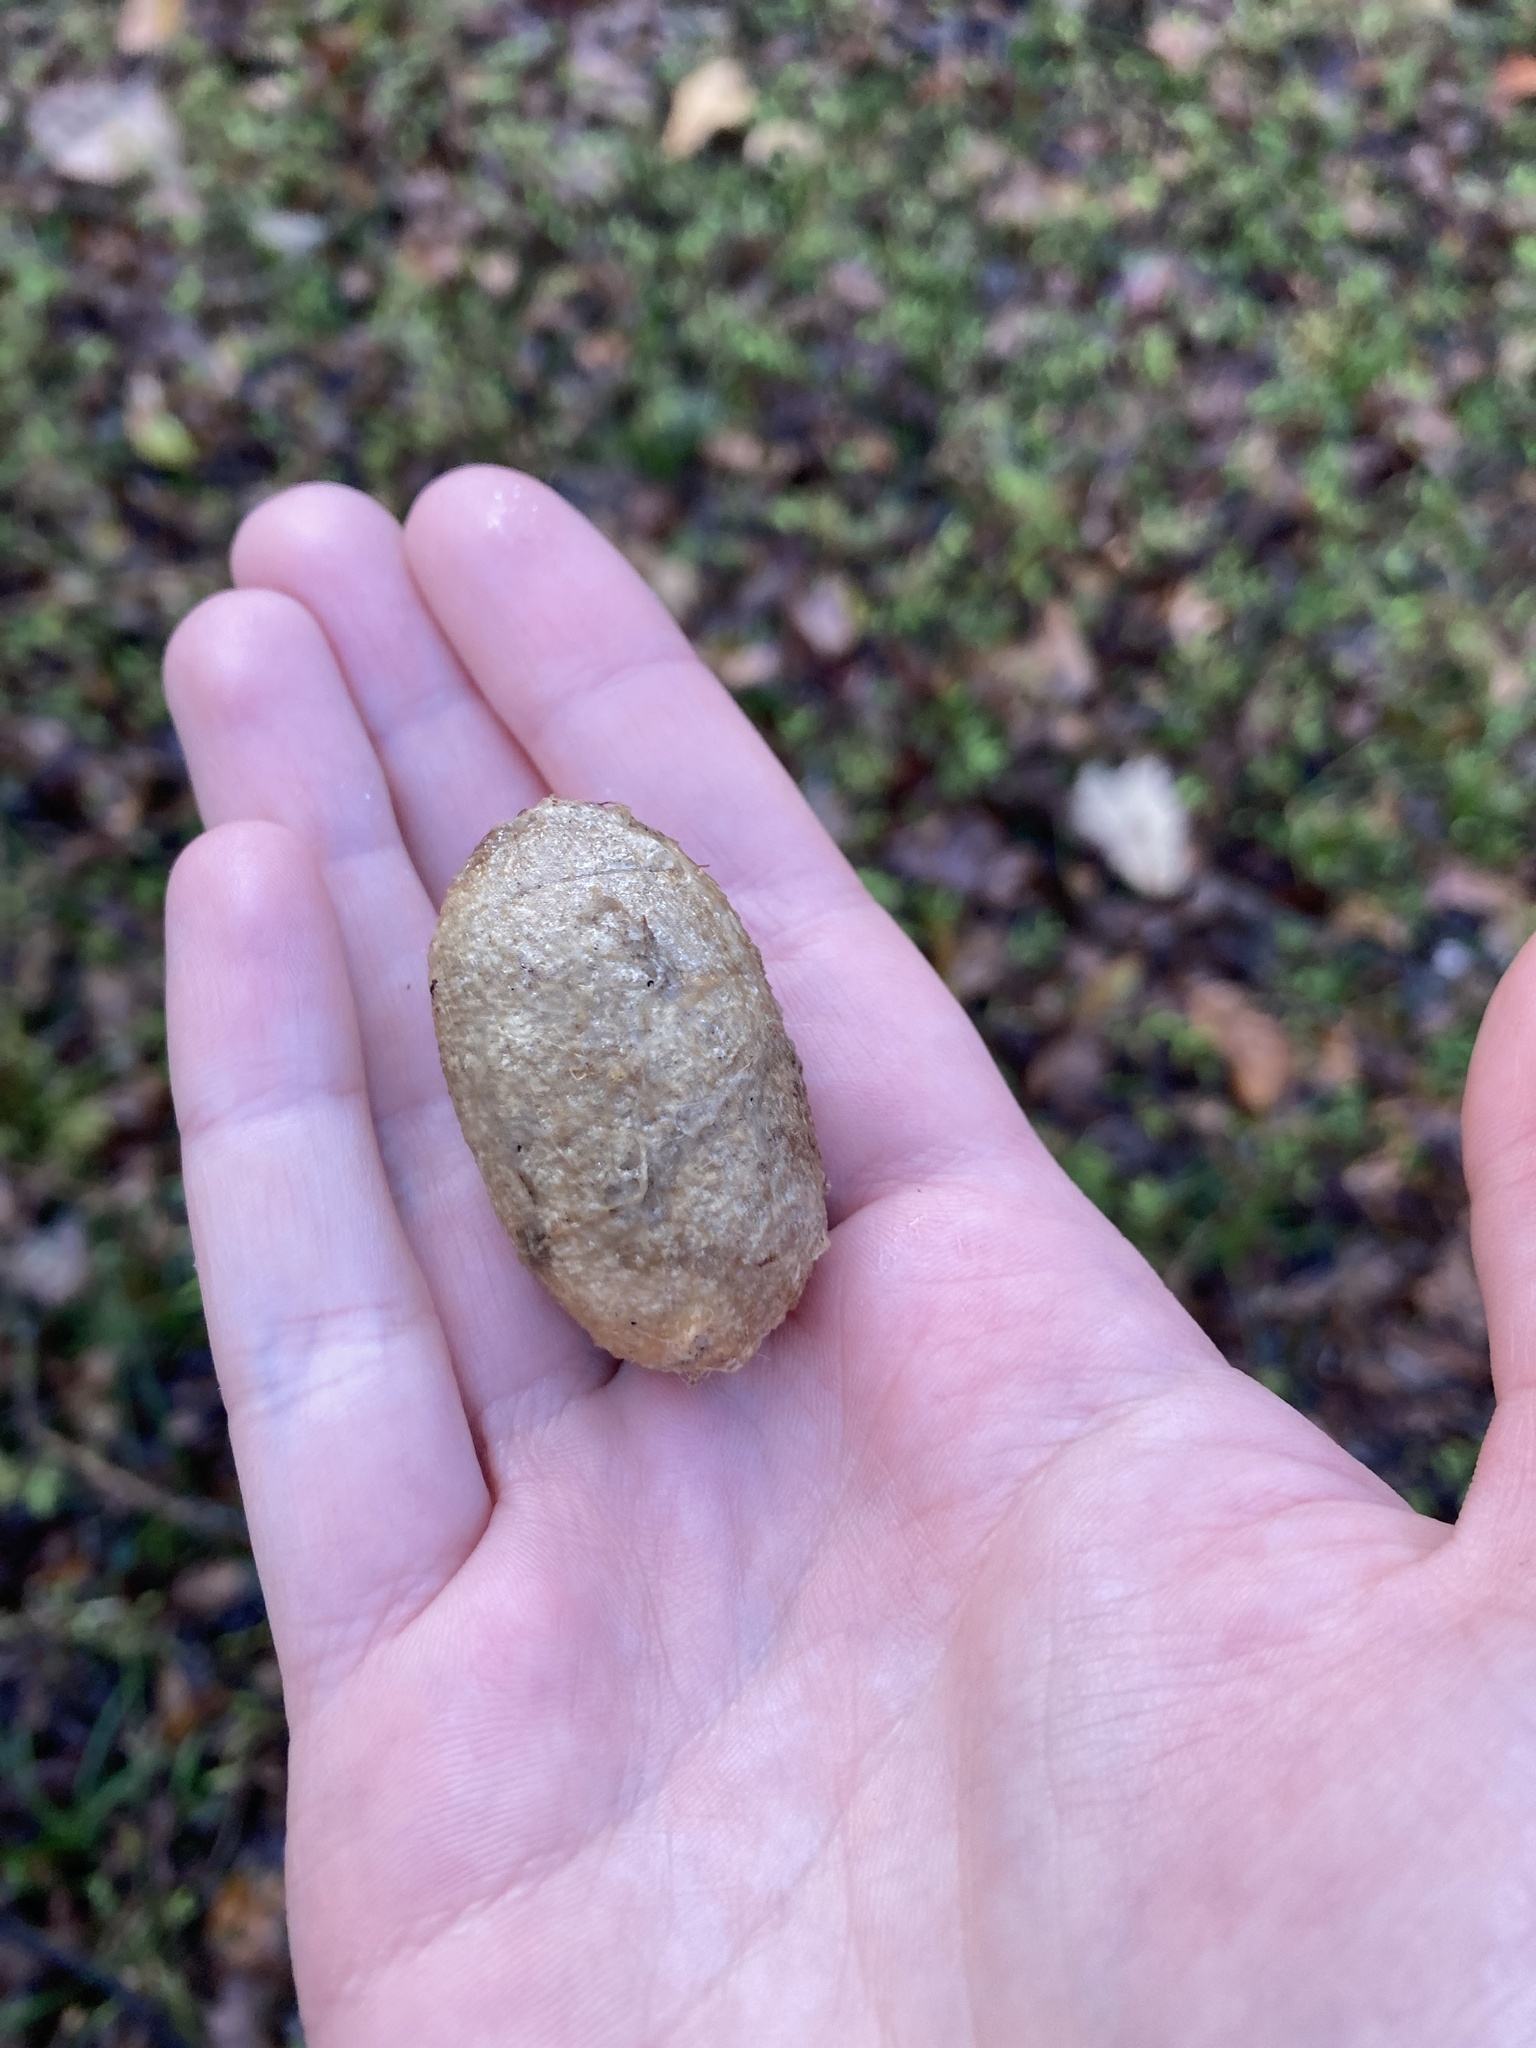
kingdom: Animalia
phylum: Arthropoda
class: Insecta
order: Lepidoptera
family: Saturniidae
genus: Antheraea
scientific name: Antheraea polyphemus
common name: Polyphemus moth
